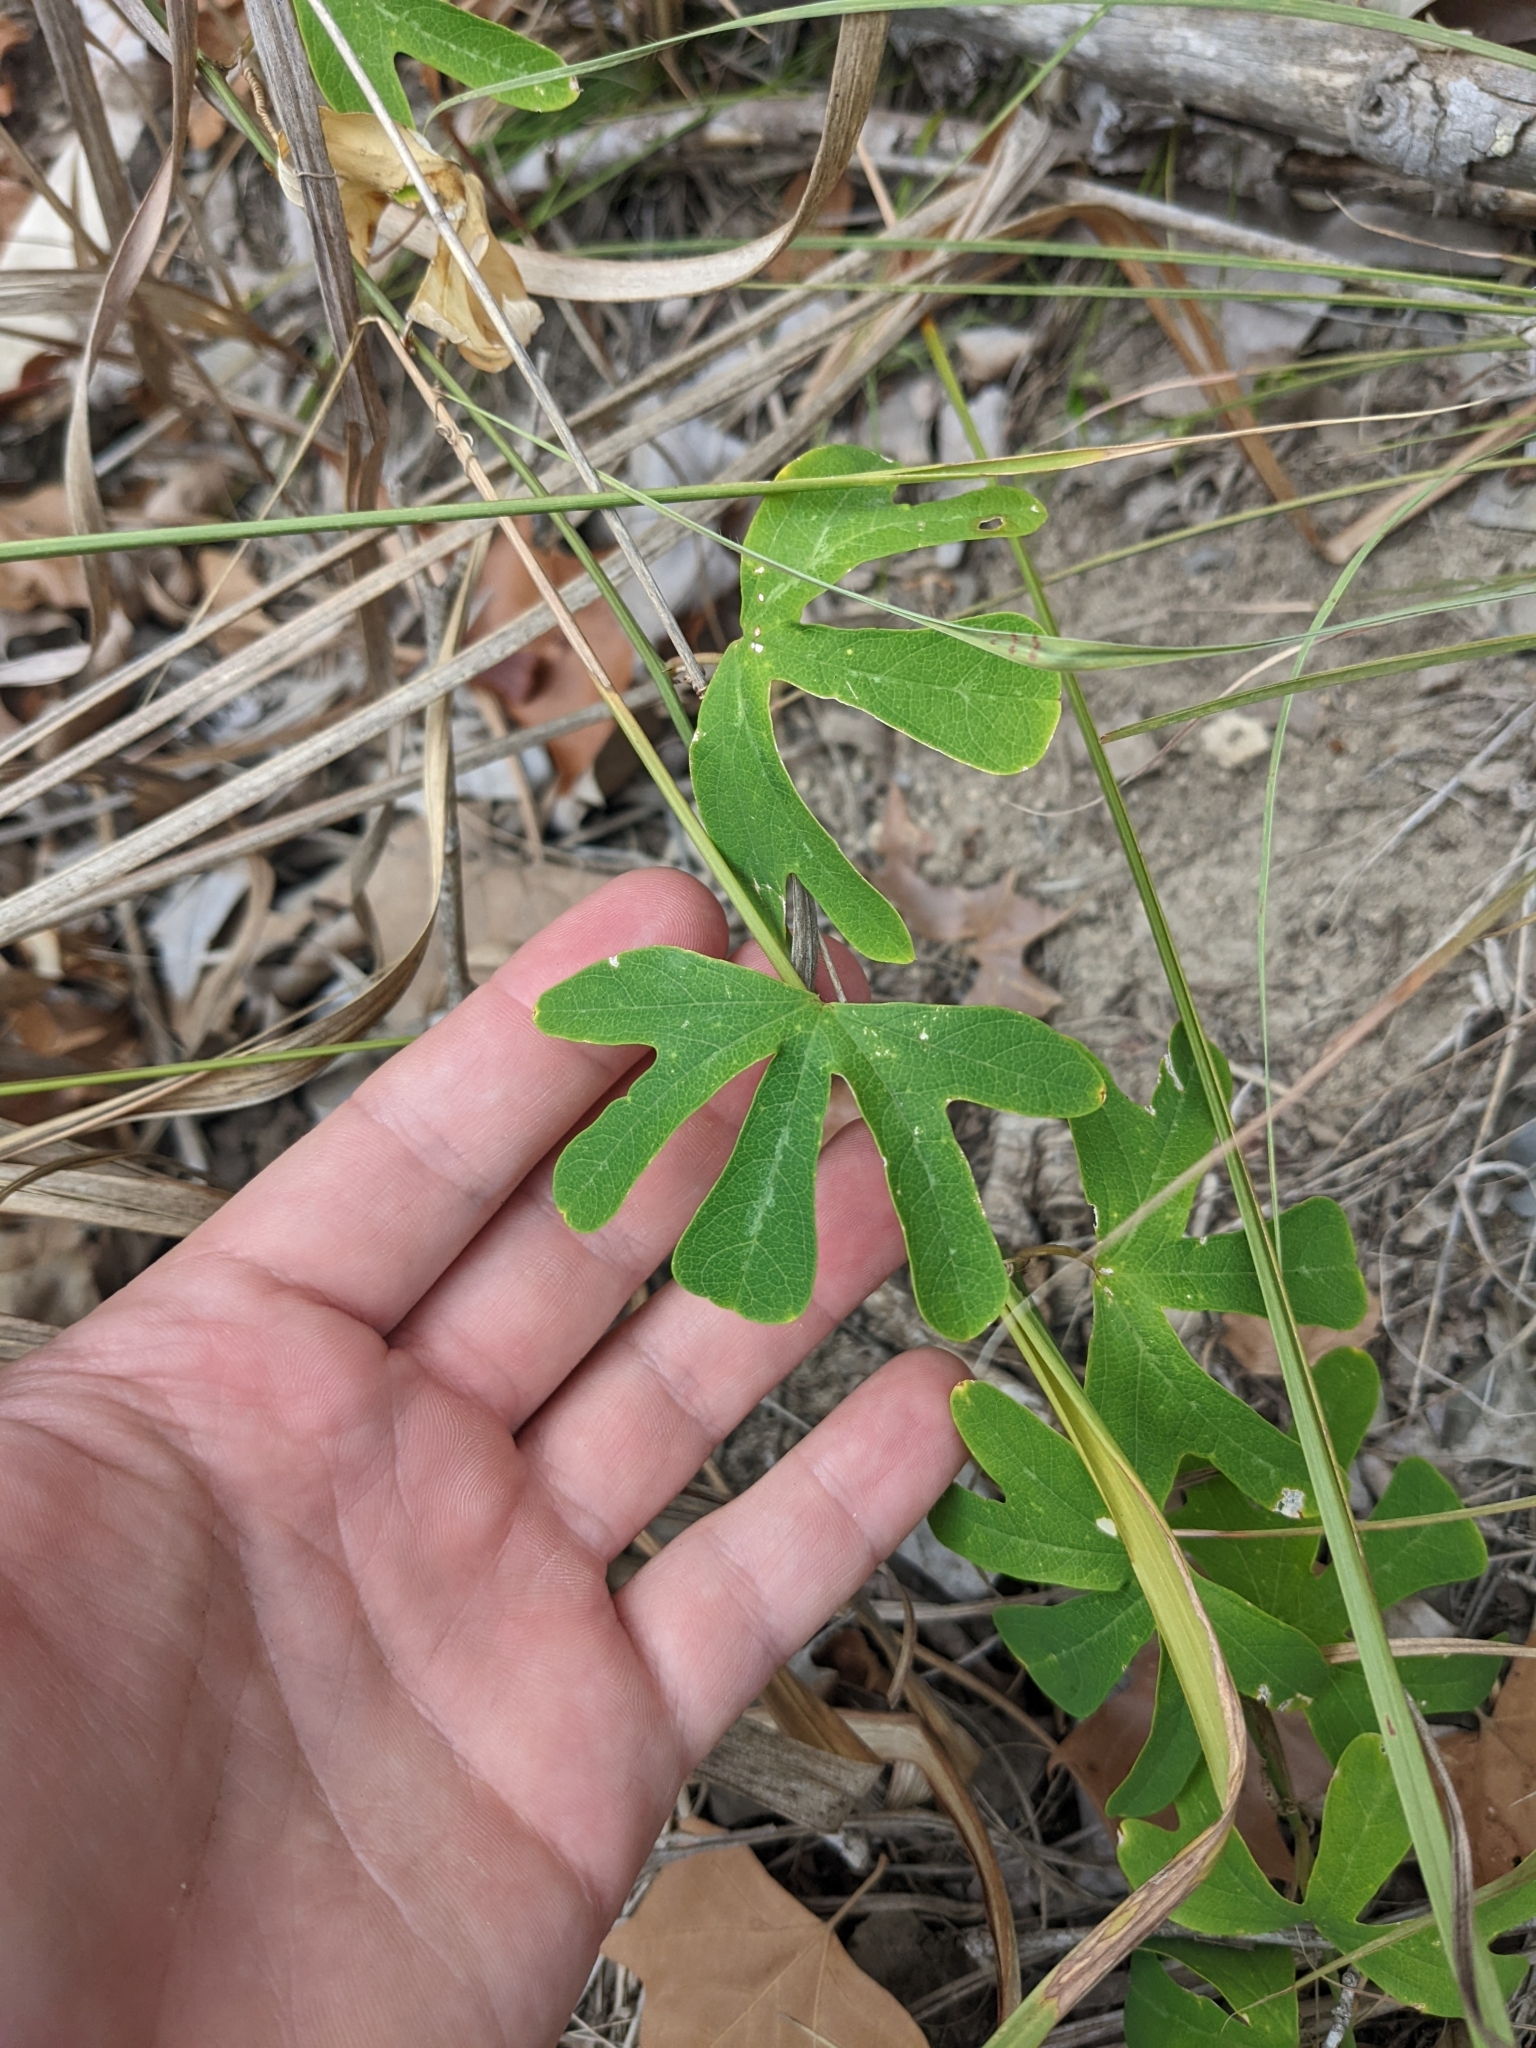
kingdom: Plantae
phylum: Tracheophyta
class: Magnoliopsida
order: Malpighiales
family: Passifloraceae
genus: Passiflora
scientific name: Passiflora affinis
